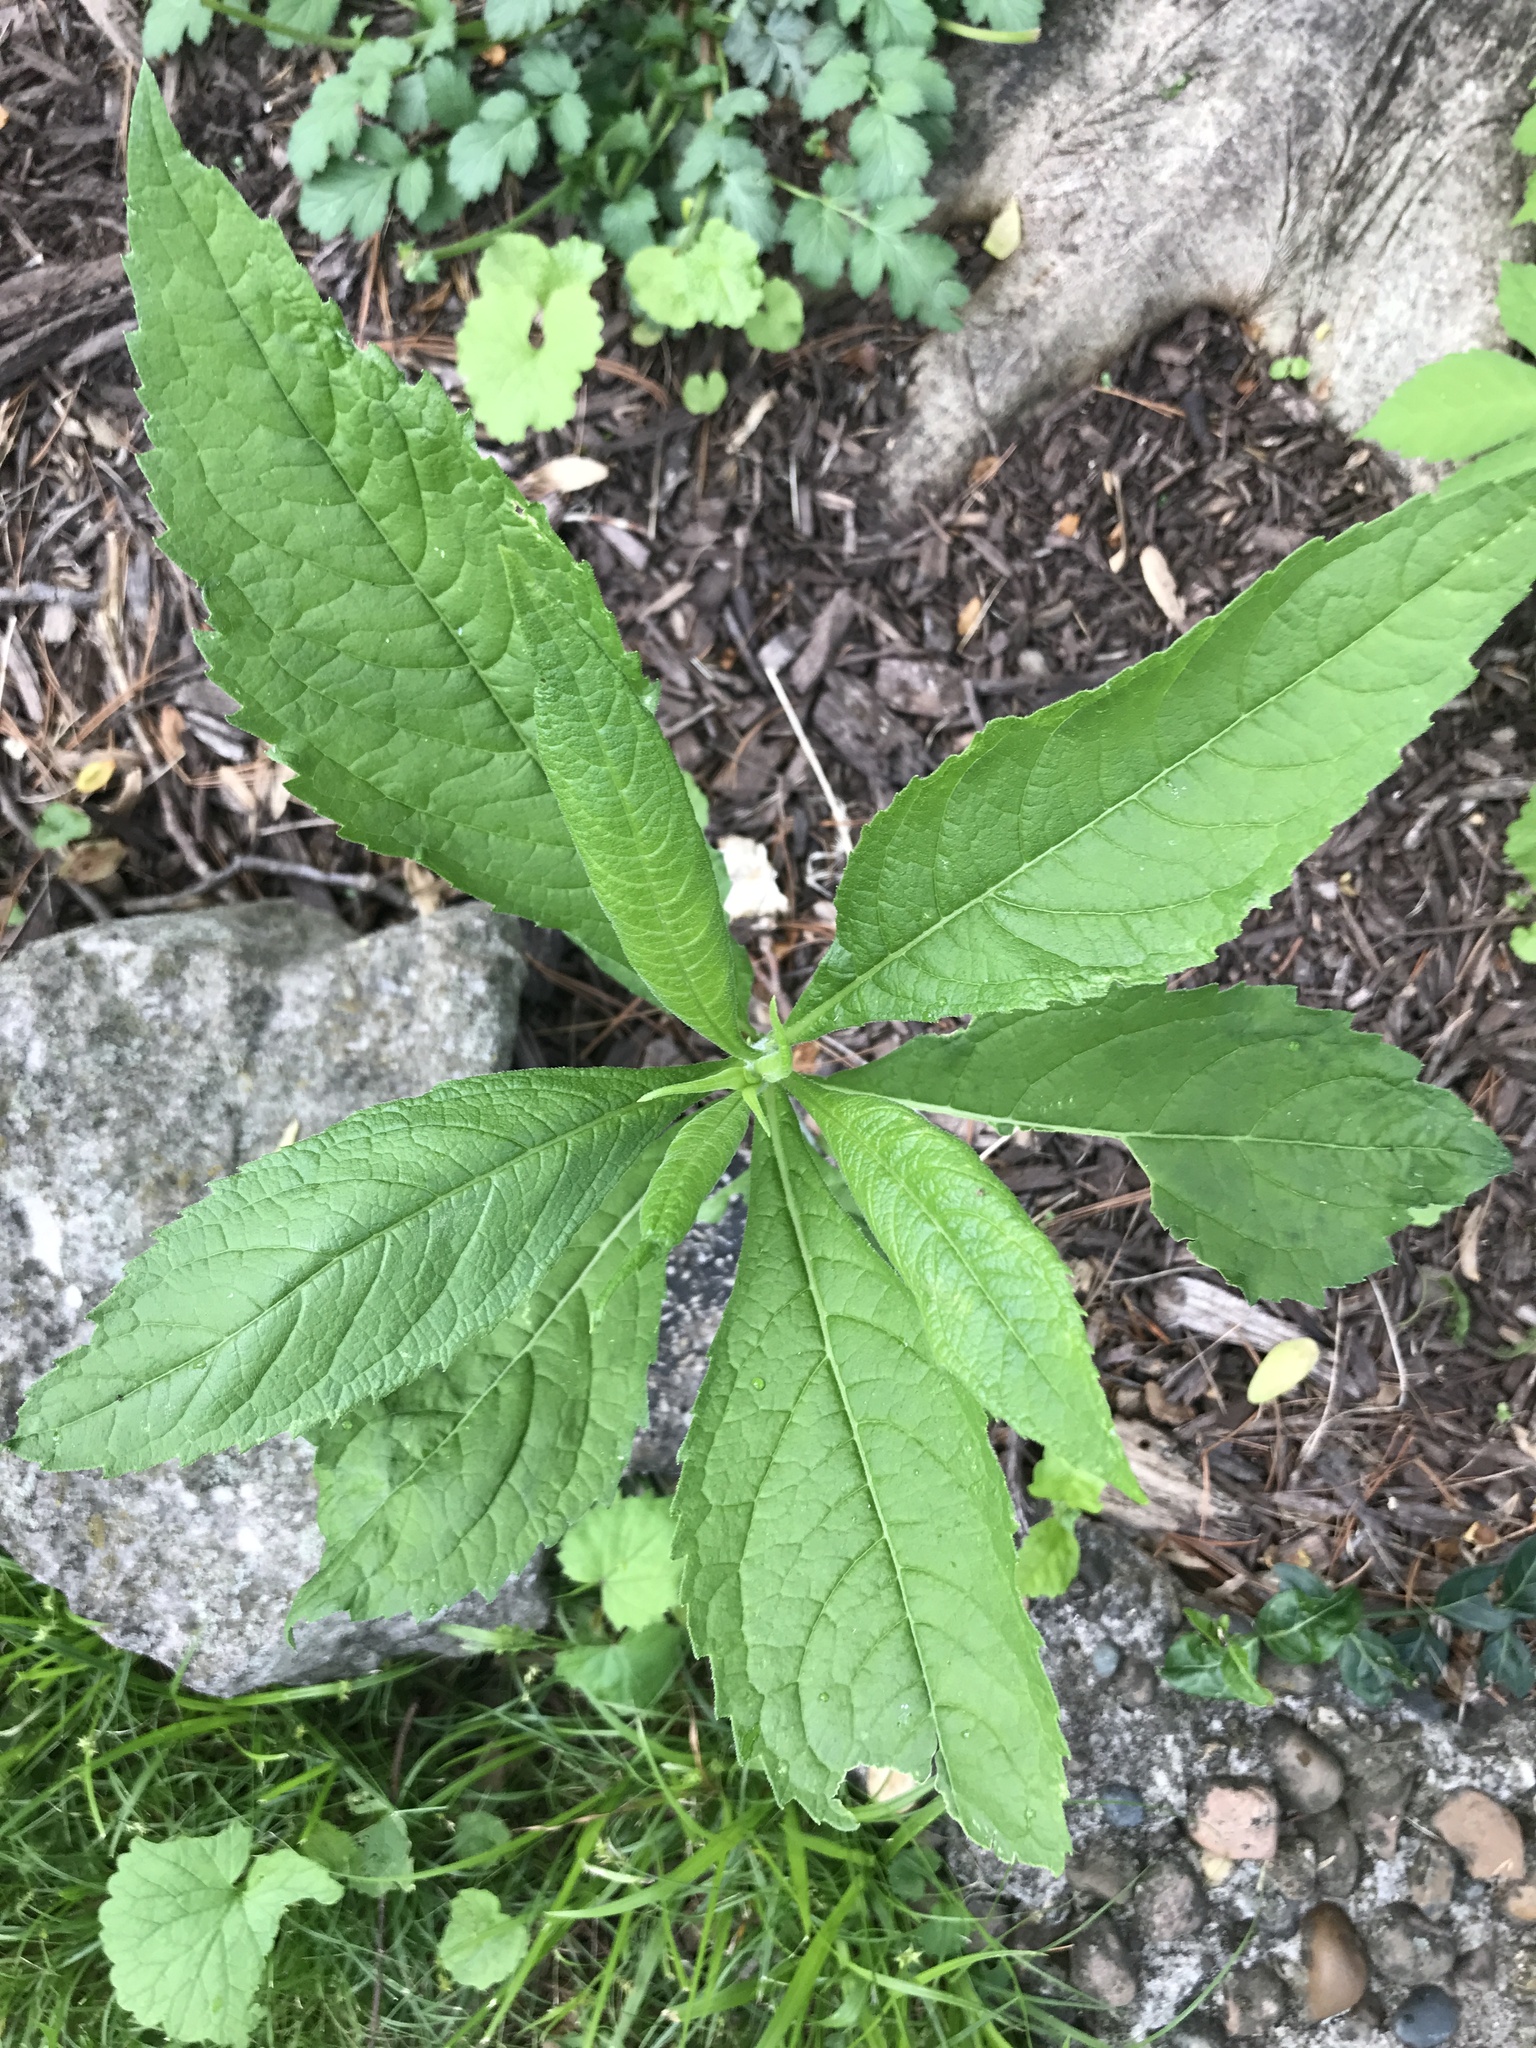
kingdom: Plantae
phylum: Tracheophyta
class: Magnoliopsida
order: Asterales
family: Asteraceae
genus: Verbesina
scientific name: Verbesina alternifolia
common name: Wingstem
